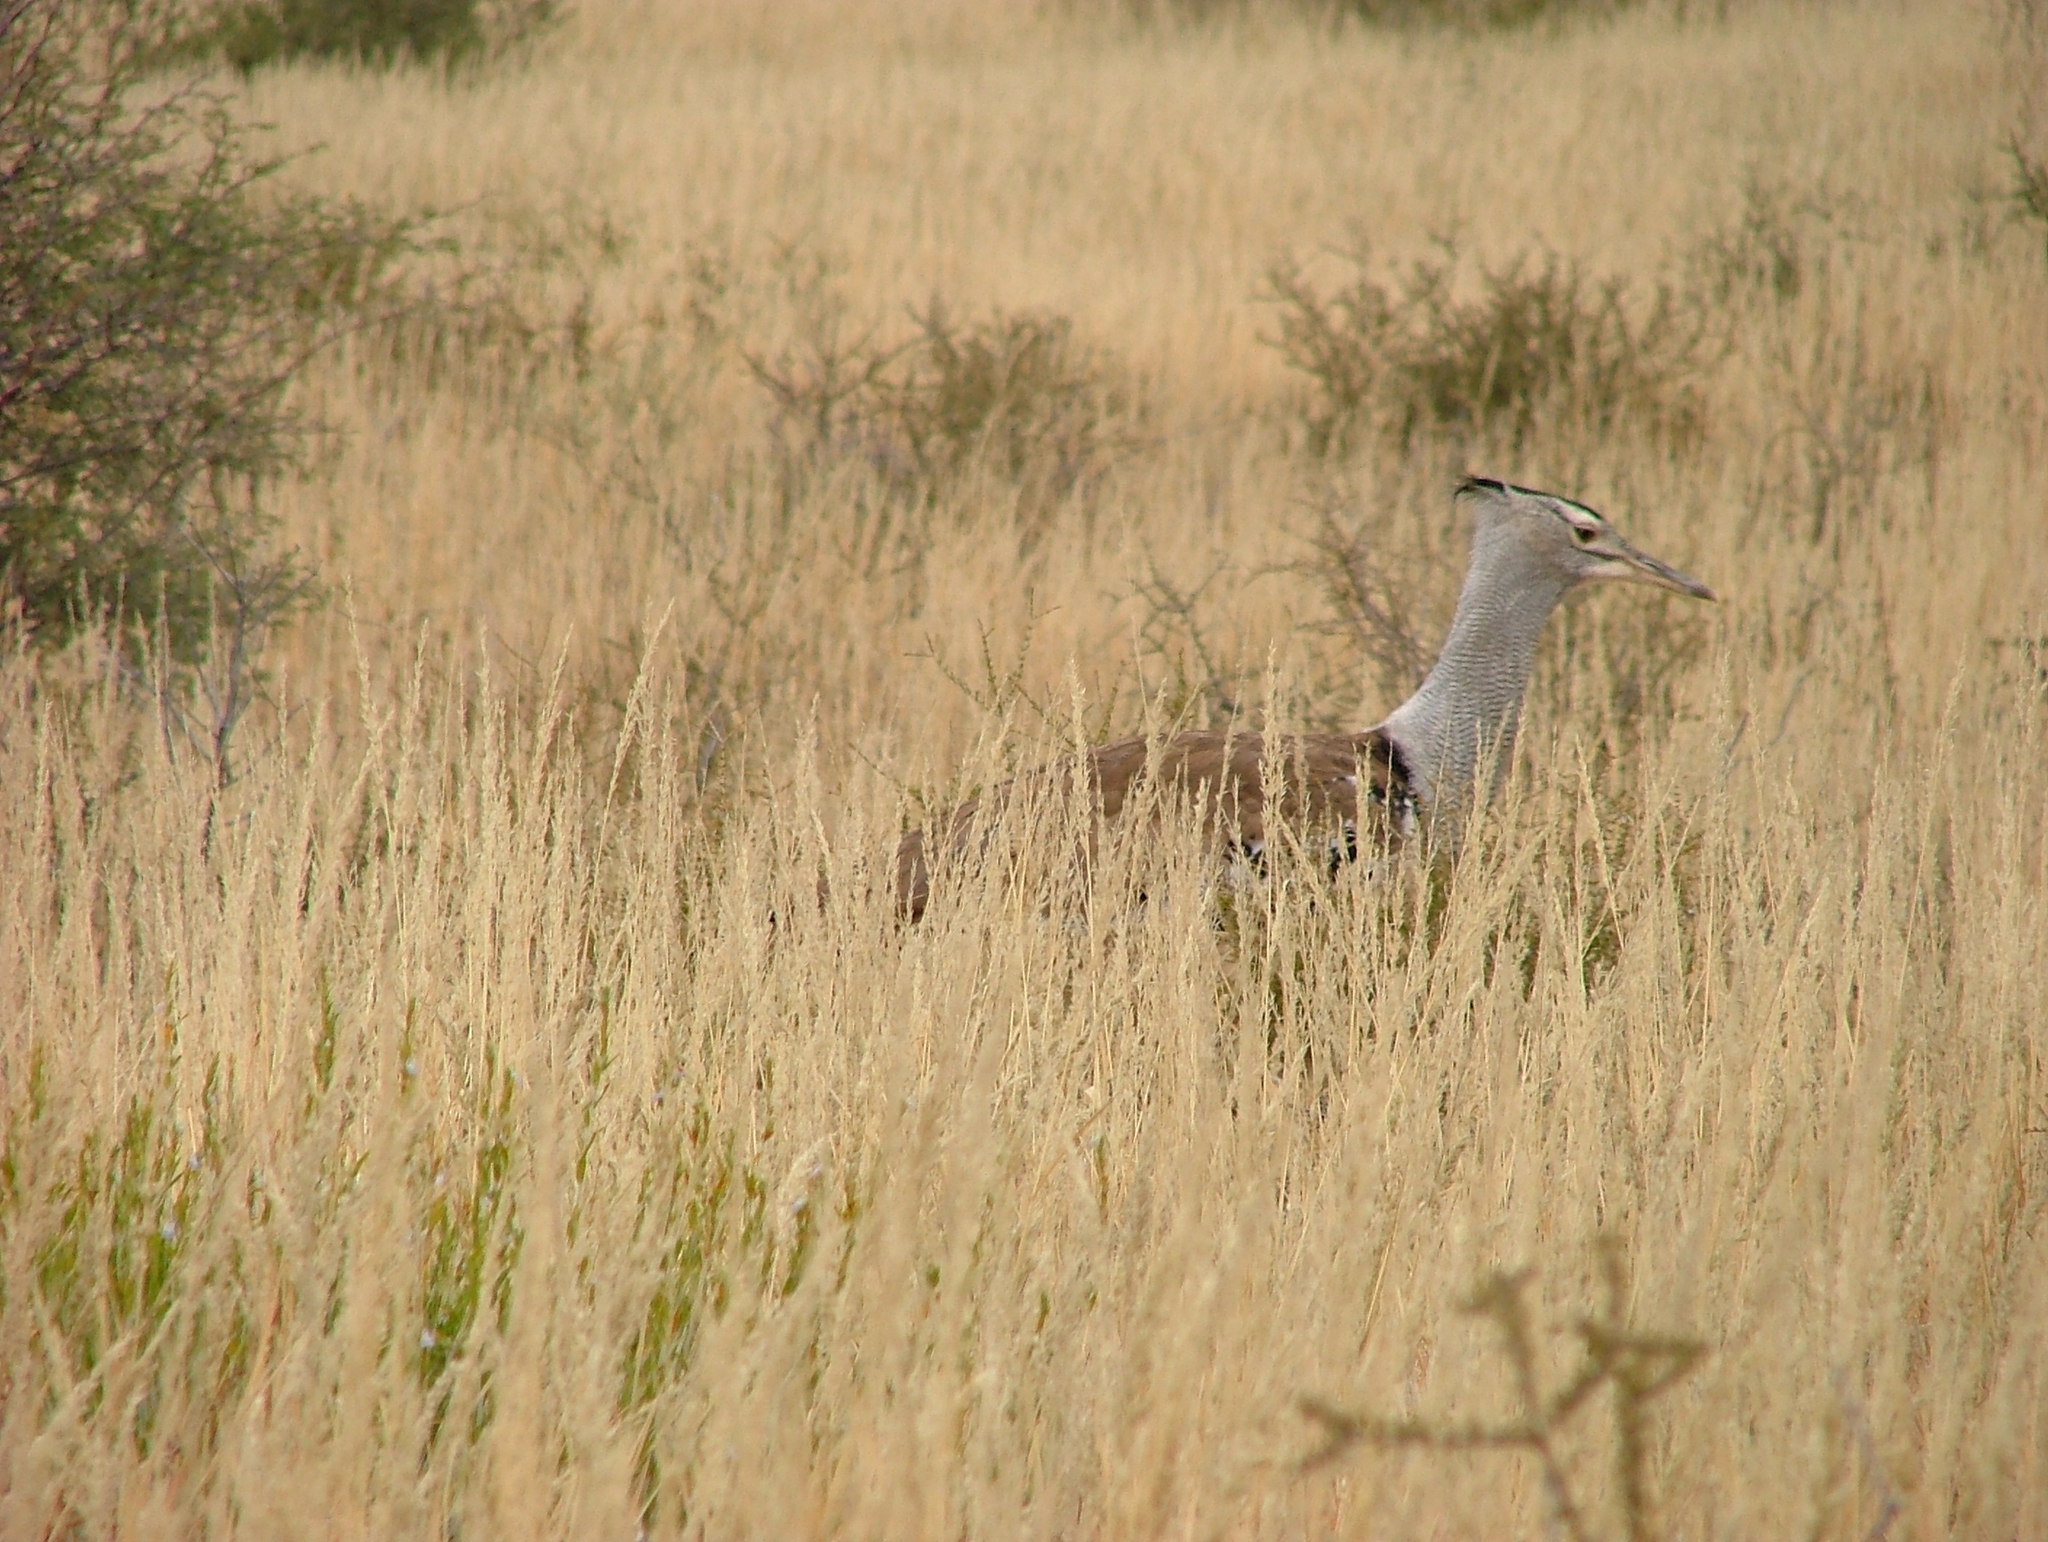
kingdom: Animalia
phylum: Chordata
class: Aves
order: Otidiformes
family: Otididae
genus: Ardeotis
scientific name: Ardeotis kori
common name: Kori bustard
